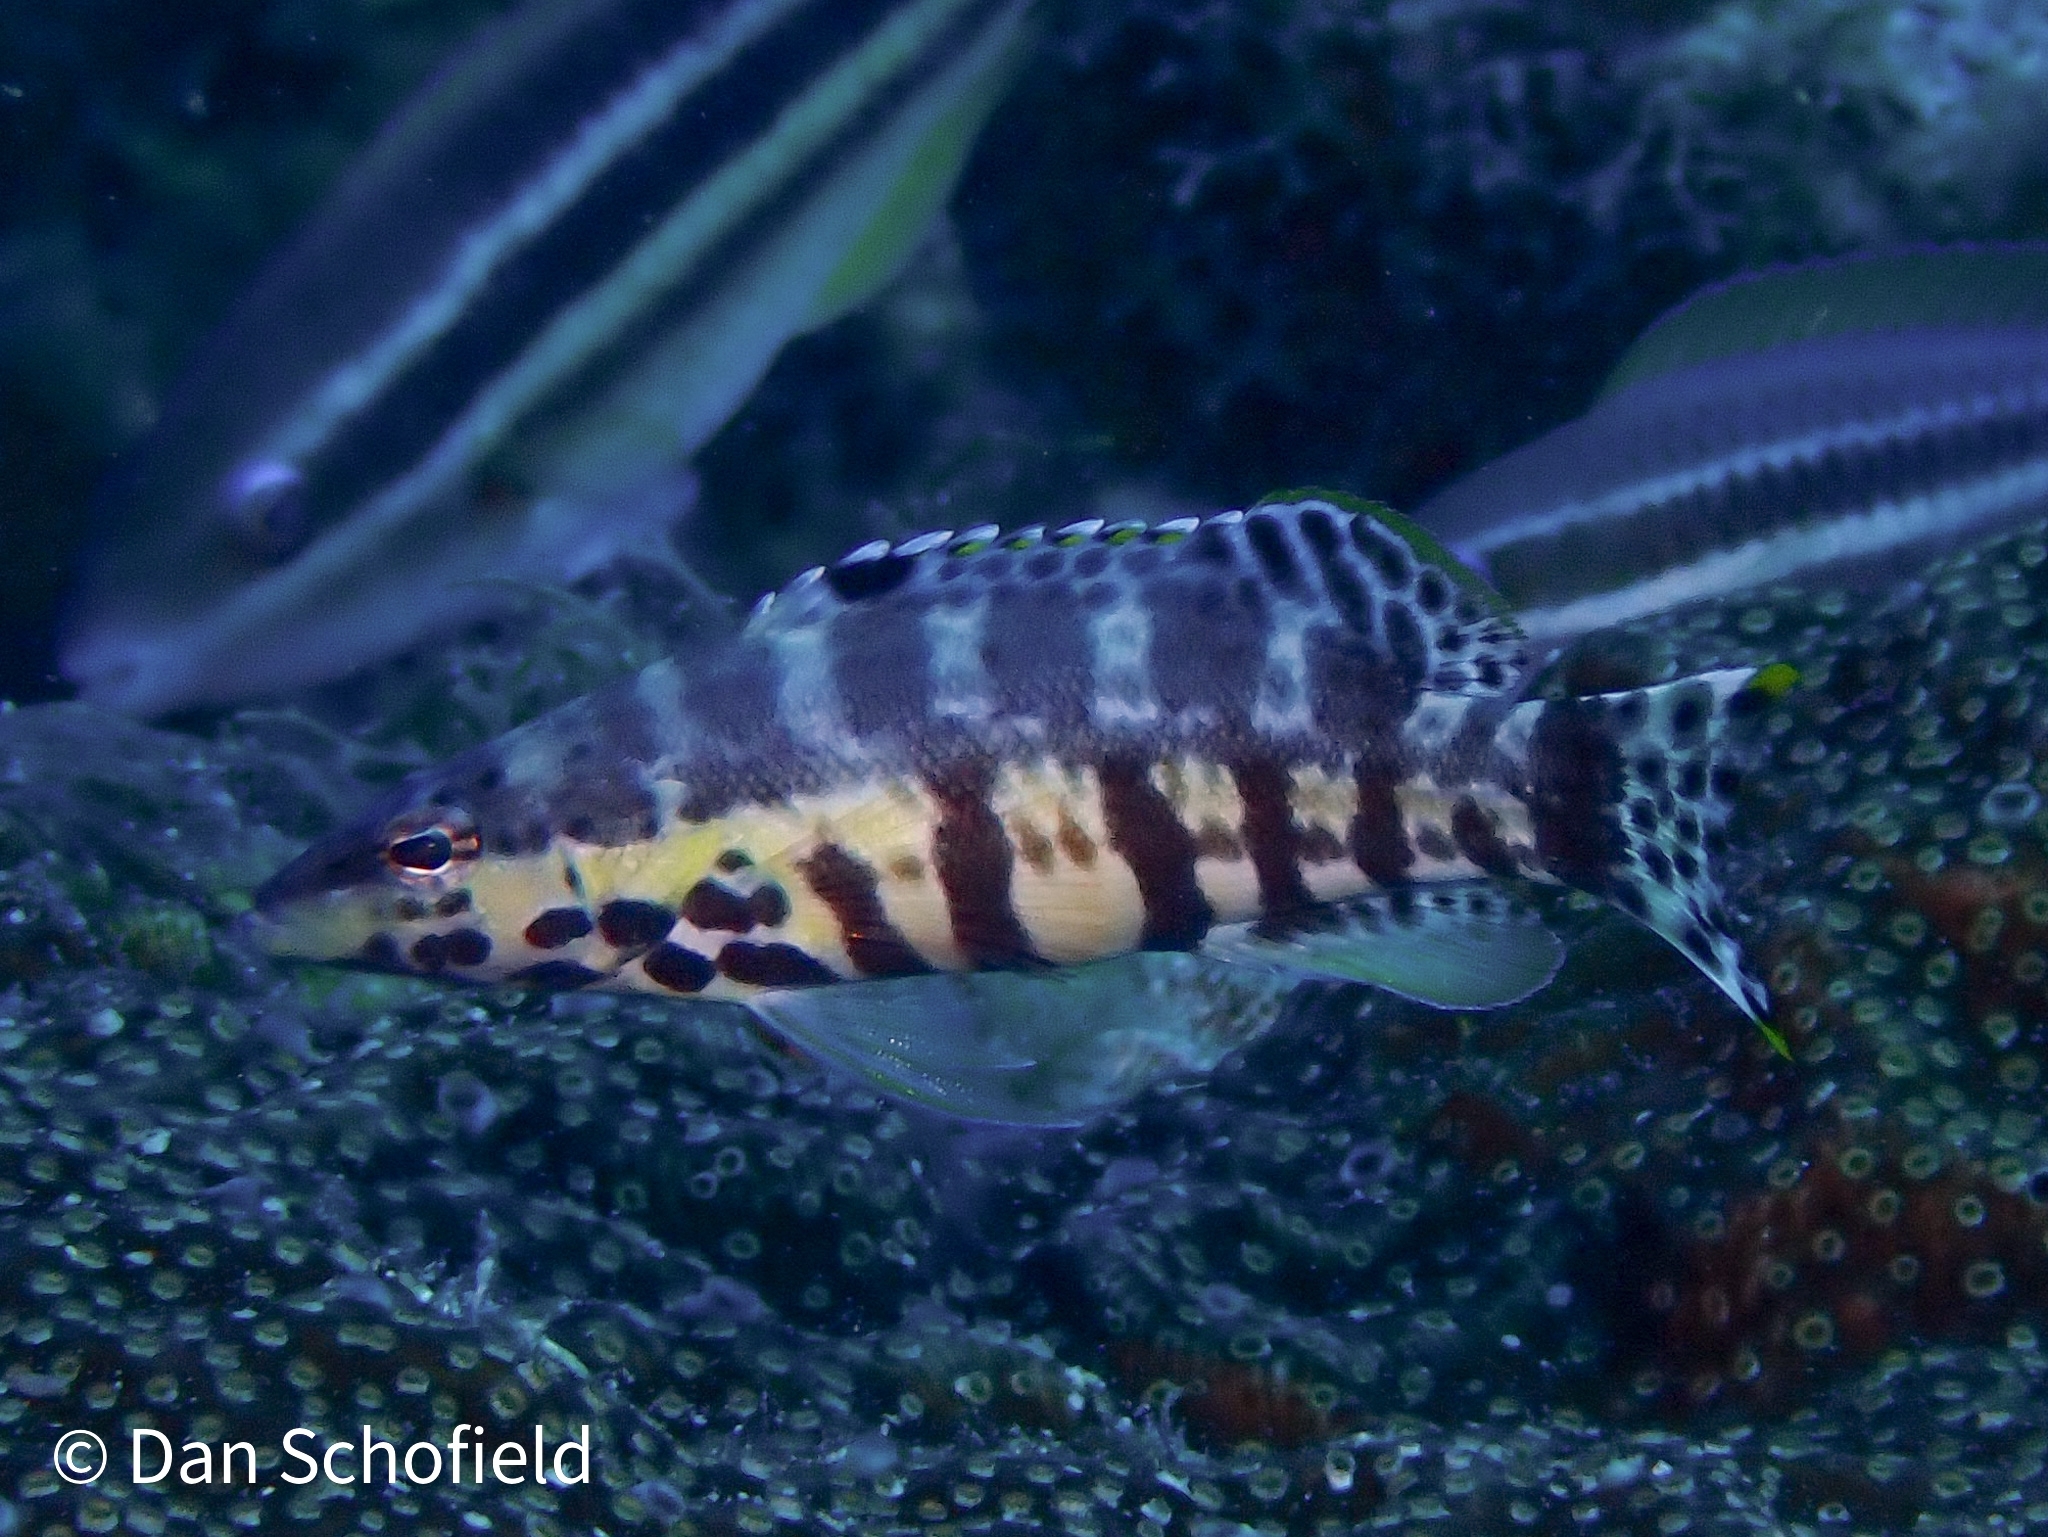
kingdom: Animalia
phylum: Chordata
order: Perciformes
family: Serranidae
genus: Serranus
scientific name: Serranus tigrinus
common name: Harlequin bass
